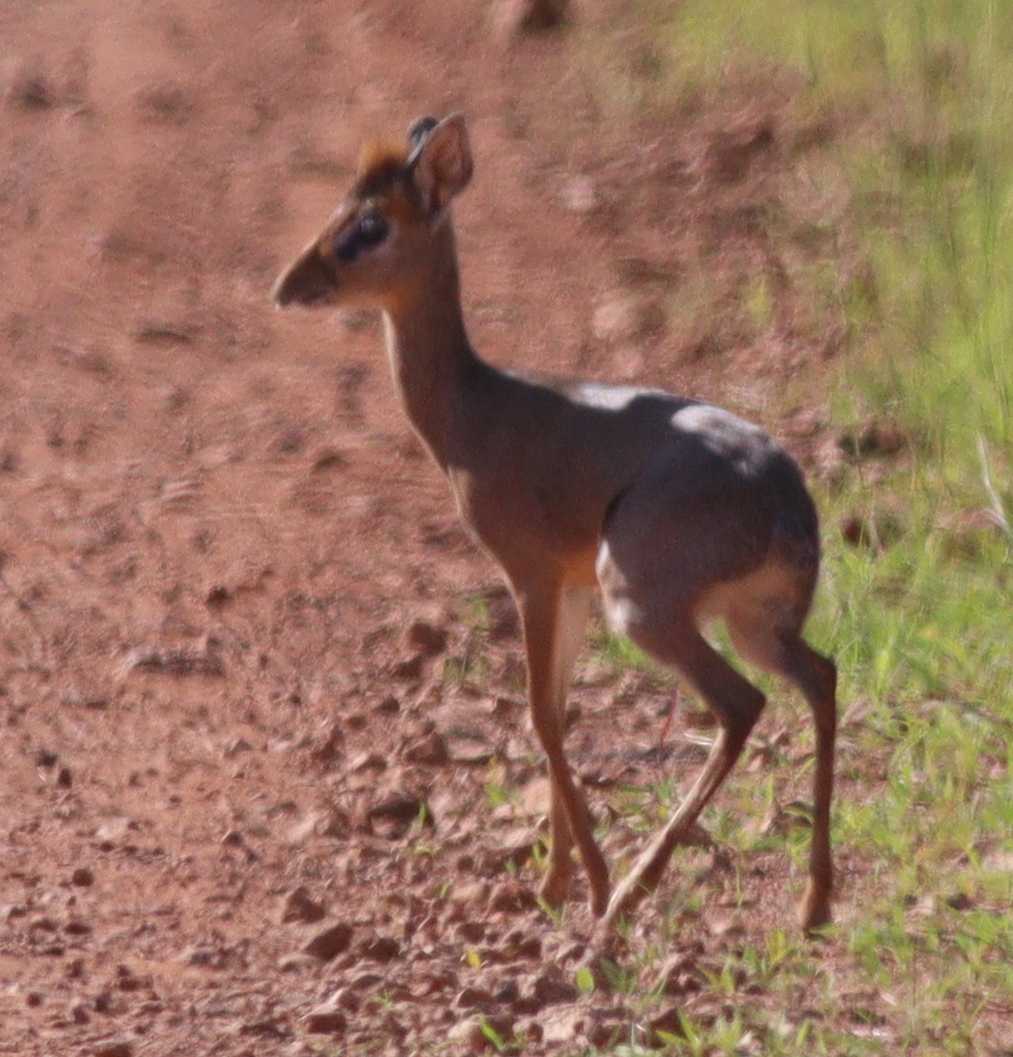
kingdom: Animalia
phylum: Chordata
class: Mammalia
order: Artiodactyla
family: Bovidae
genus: Madoqua
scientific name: Madoqua kirkii
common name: Kirk's dik-dik
